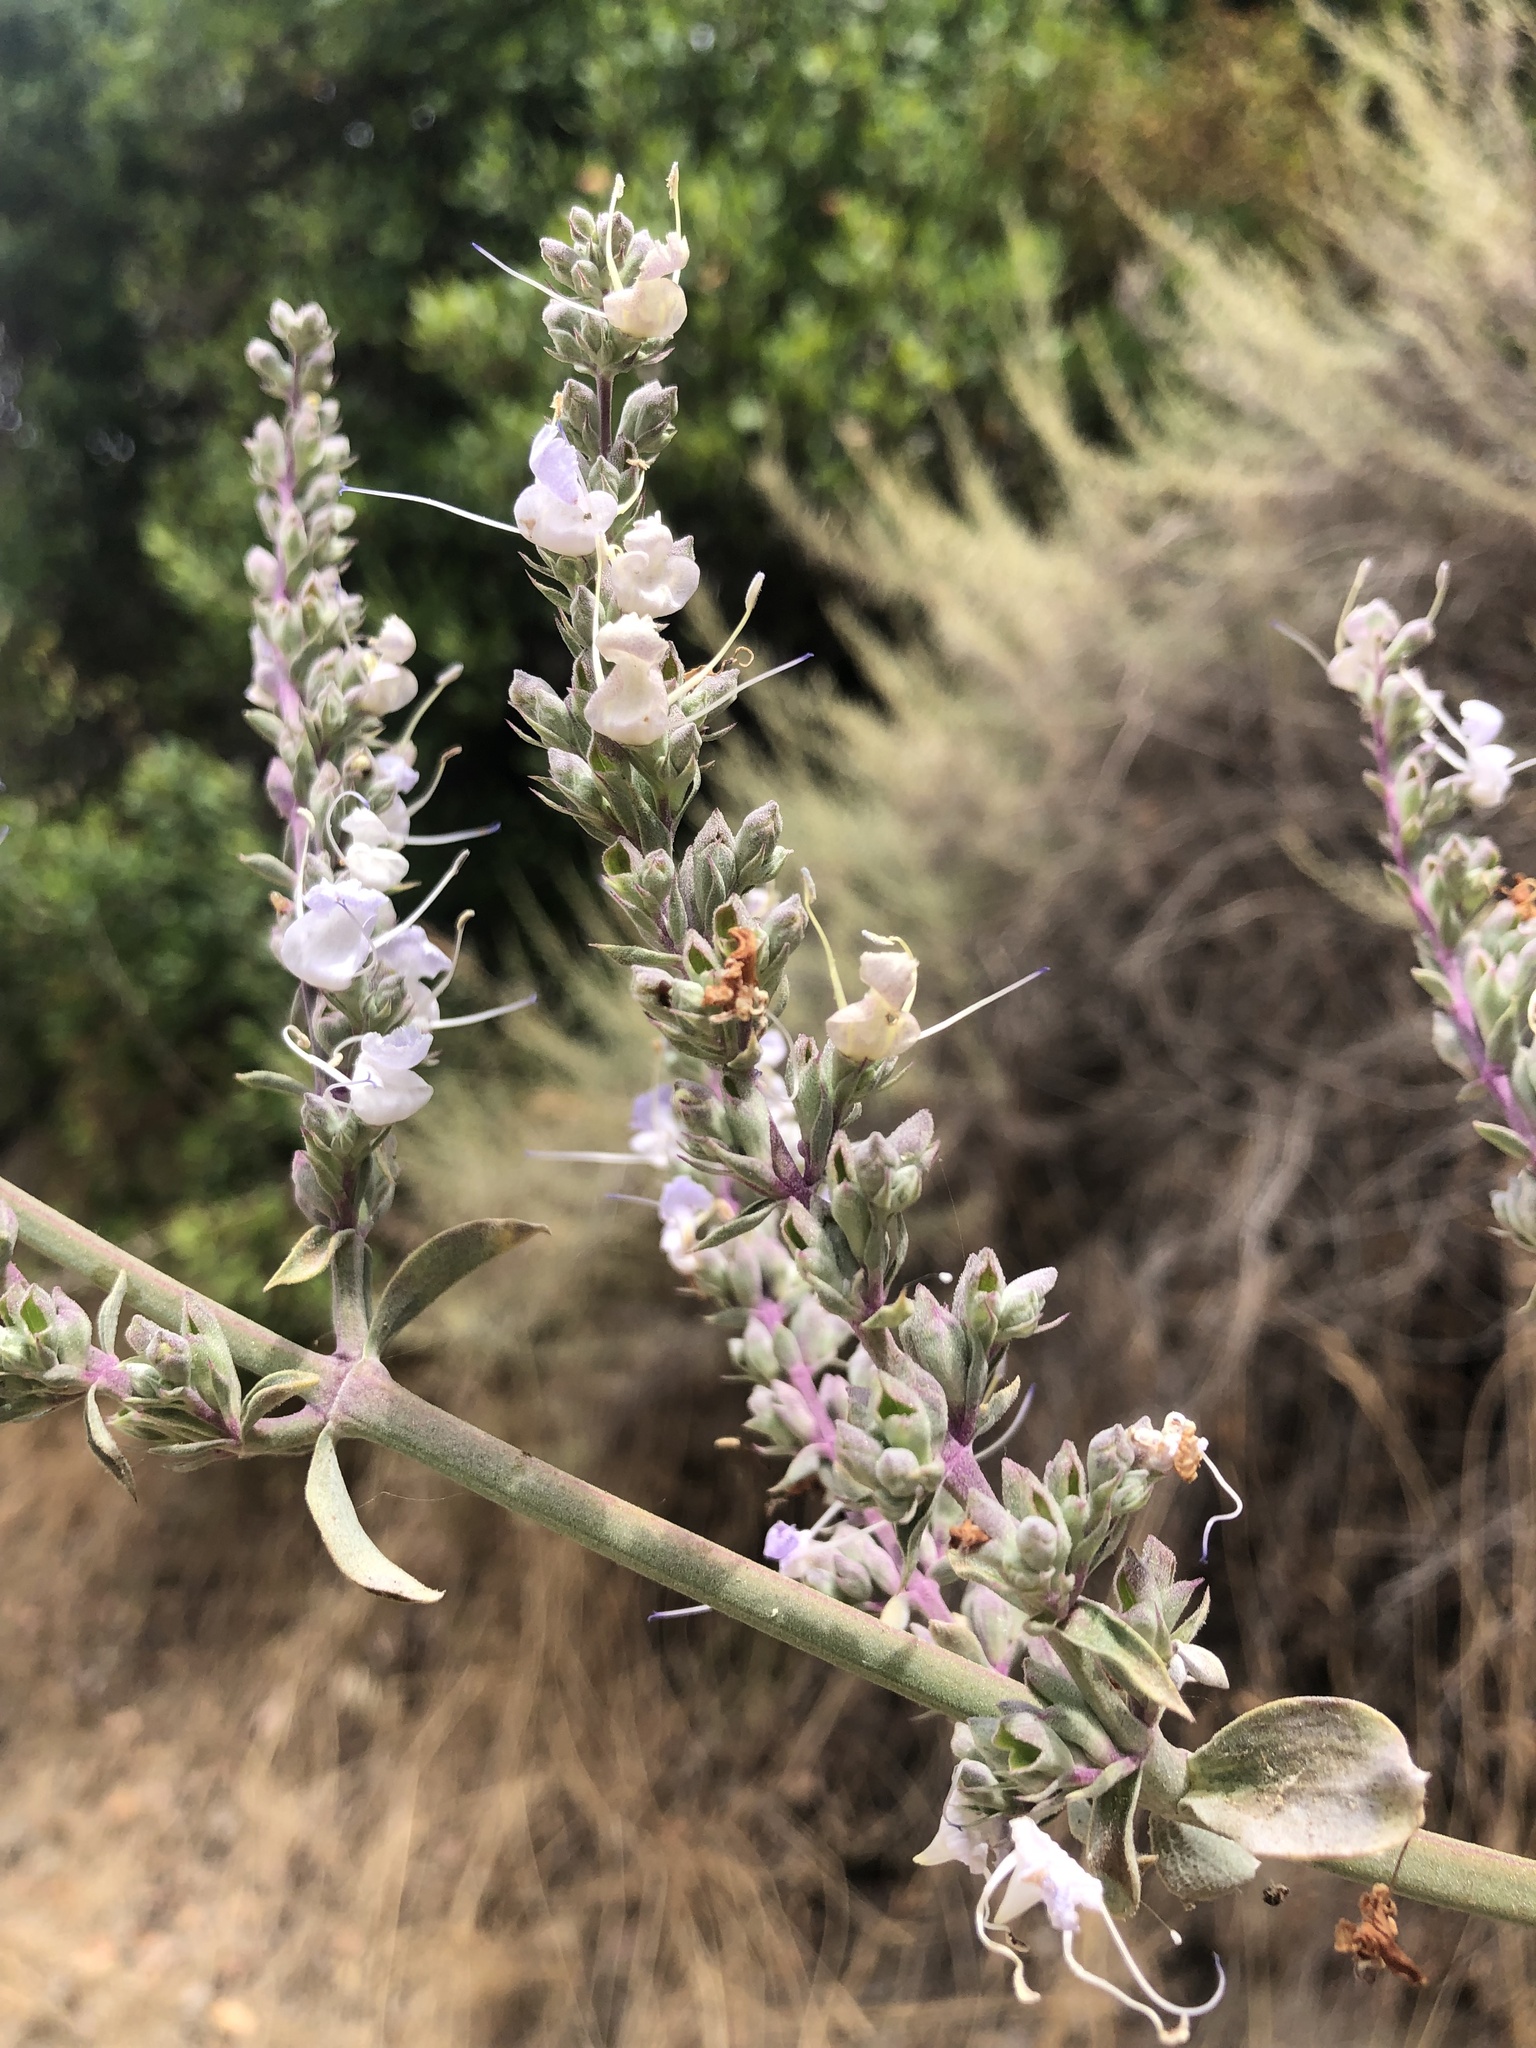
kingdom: Plantae
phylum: Tracheophyta
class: Magnoliopsida
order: Lamiales
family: Lamiaceae
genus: Salvia
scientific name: Salvia apiana
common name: White sage
